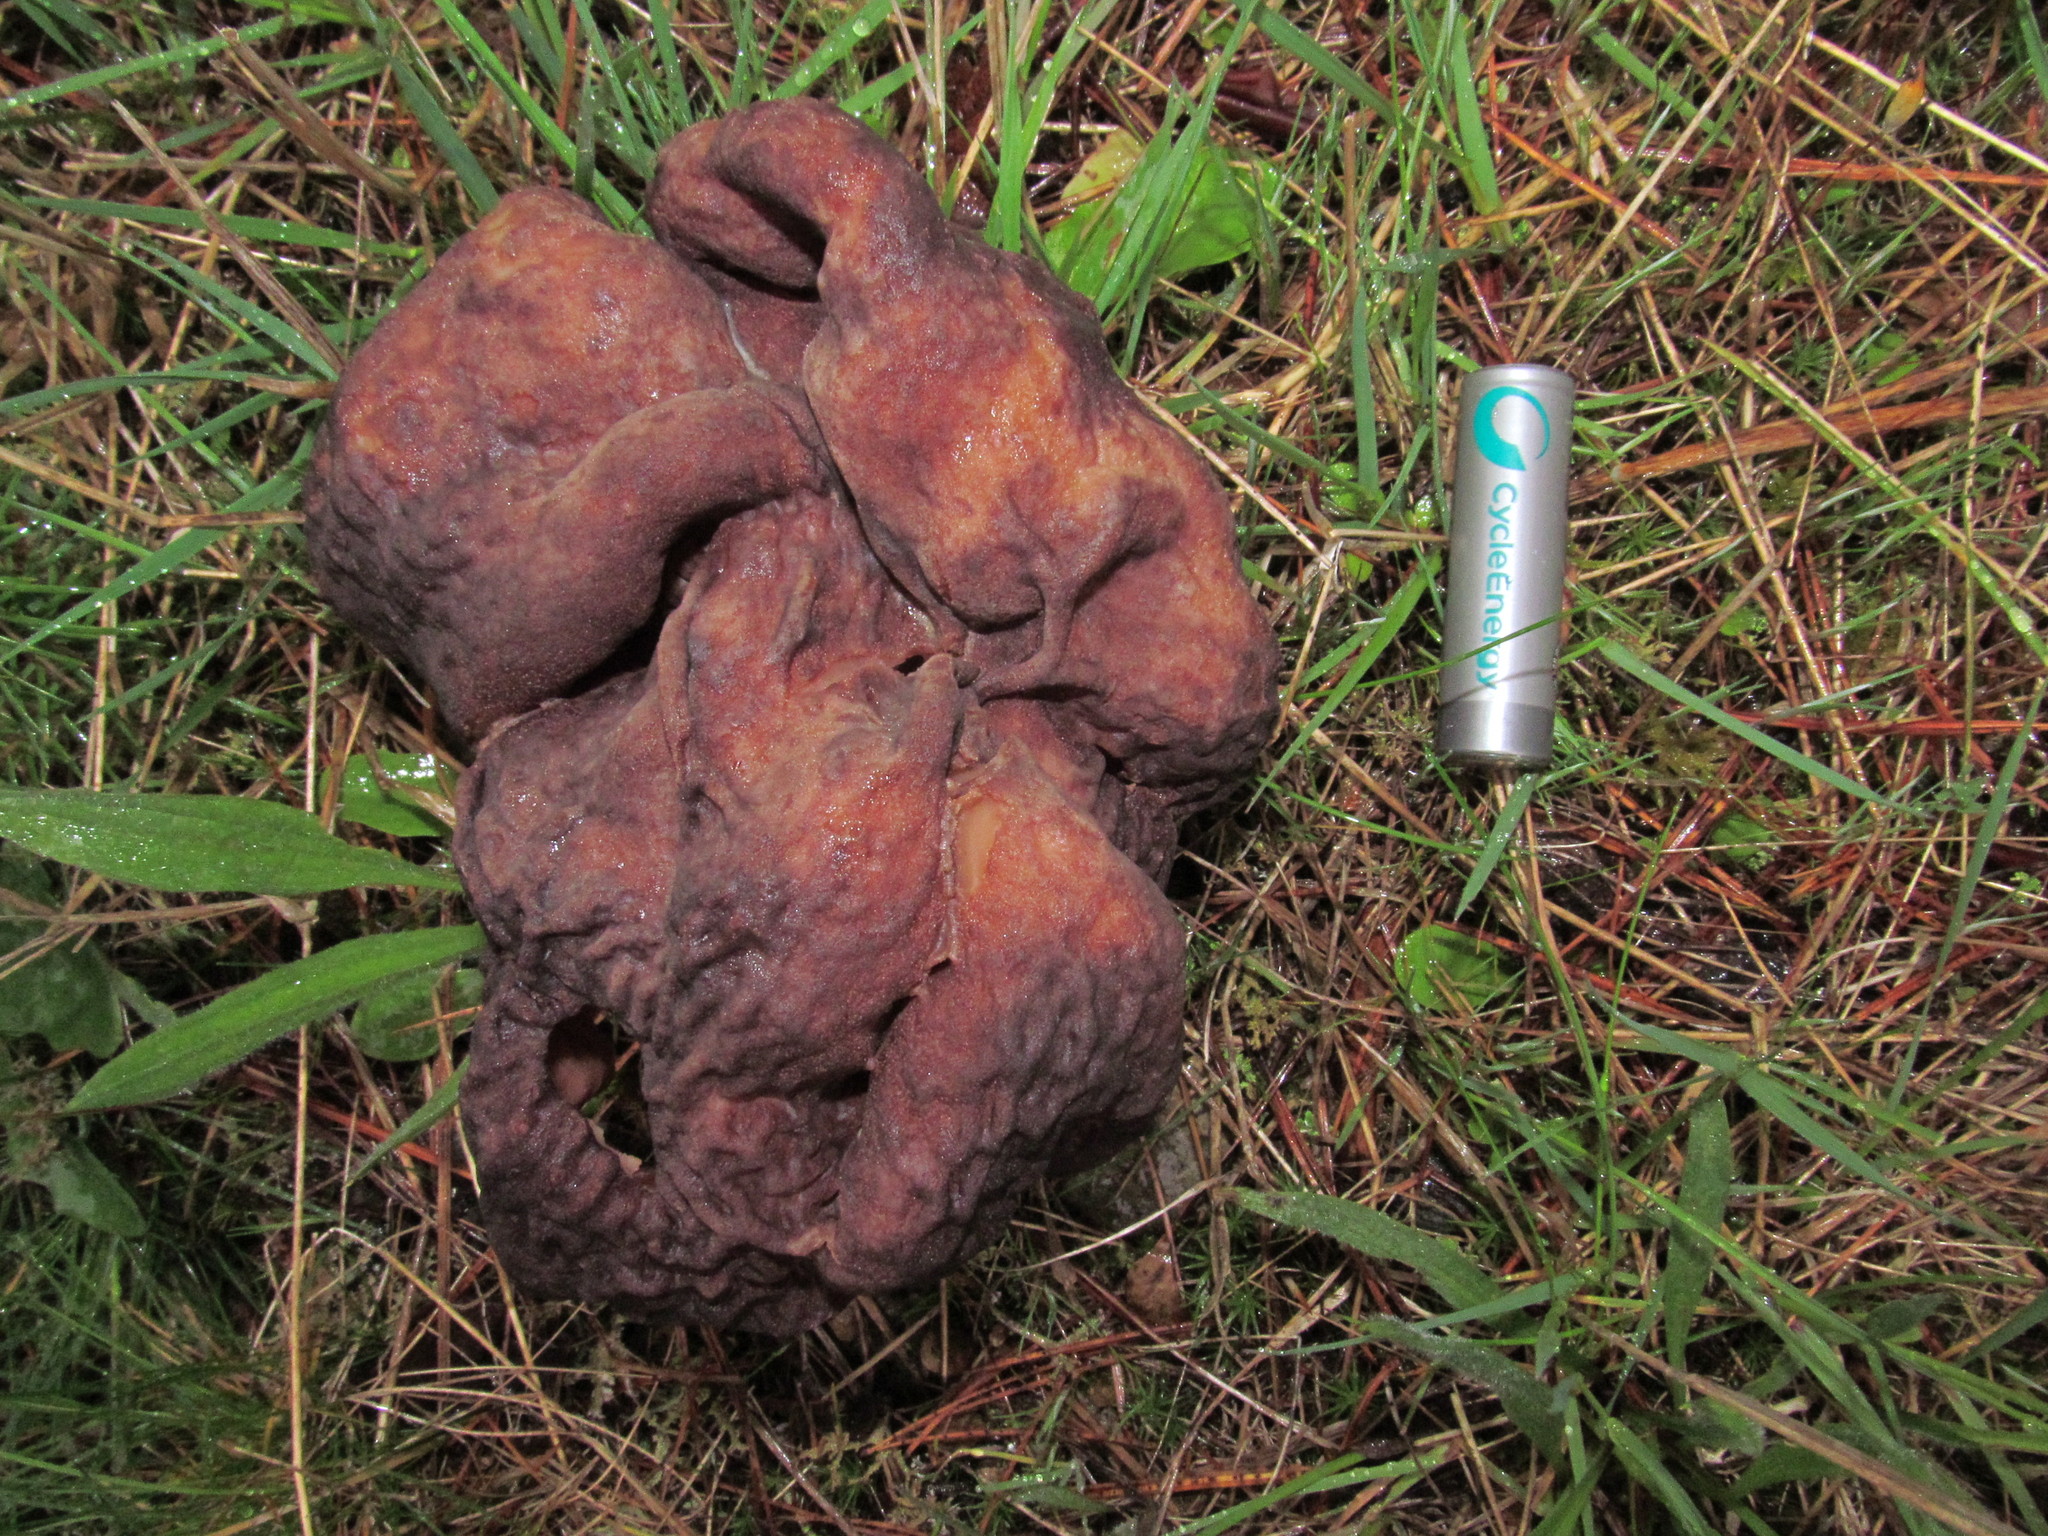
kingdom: Fungi
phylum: Ascomycota
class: Pezizomycetes
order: Pezizales
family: Discinaceae
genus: Gyromitra
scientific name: Gyromitra esculenta
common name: False morel
